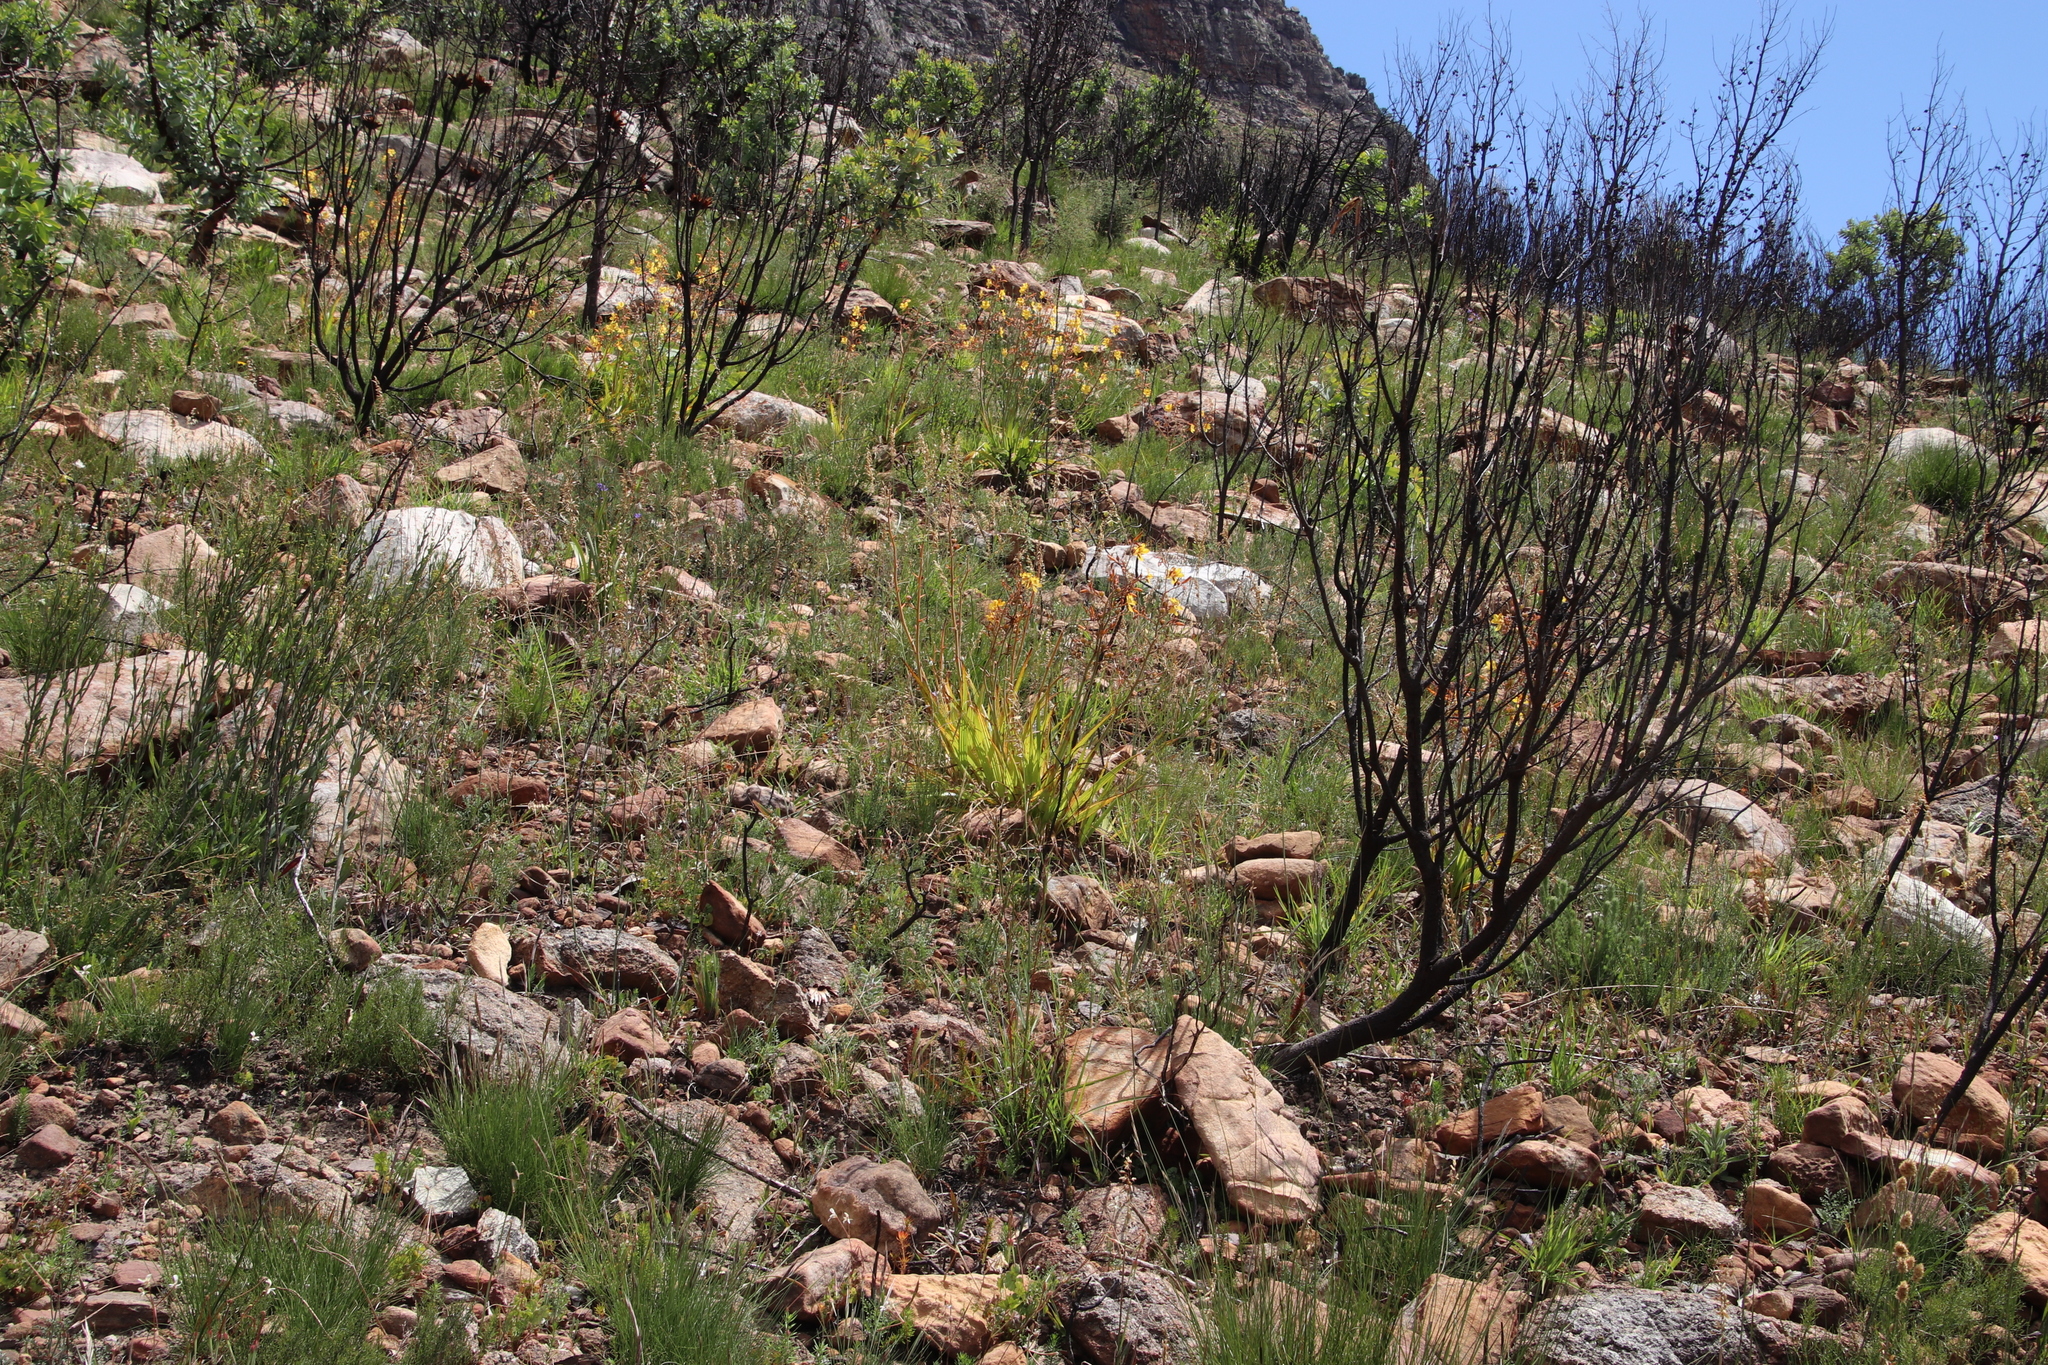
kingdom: Plantae
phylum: Tracheophyta
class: Liliopsida
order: Commelinales
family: Haemodoraceae
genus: Wachendorfia
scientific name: Wachendorfia paniculata
